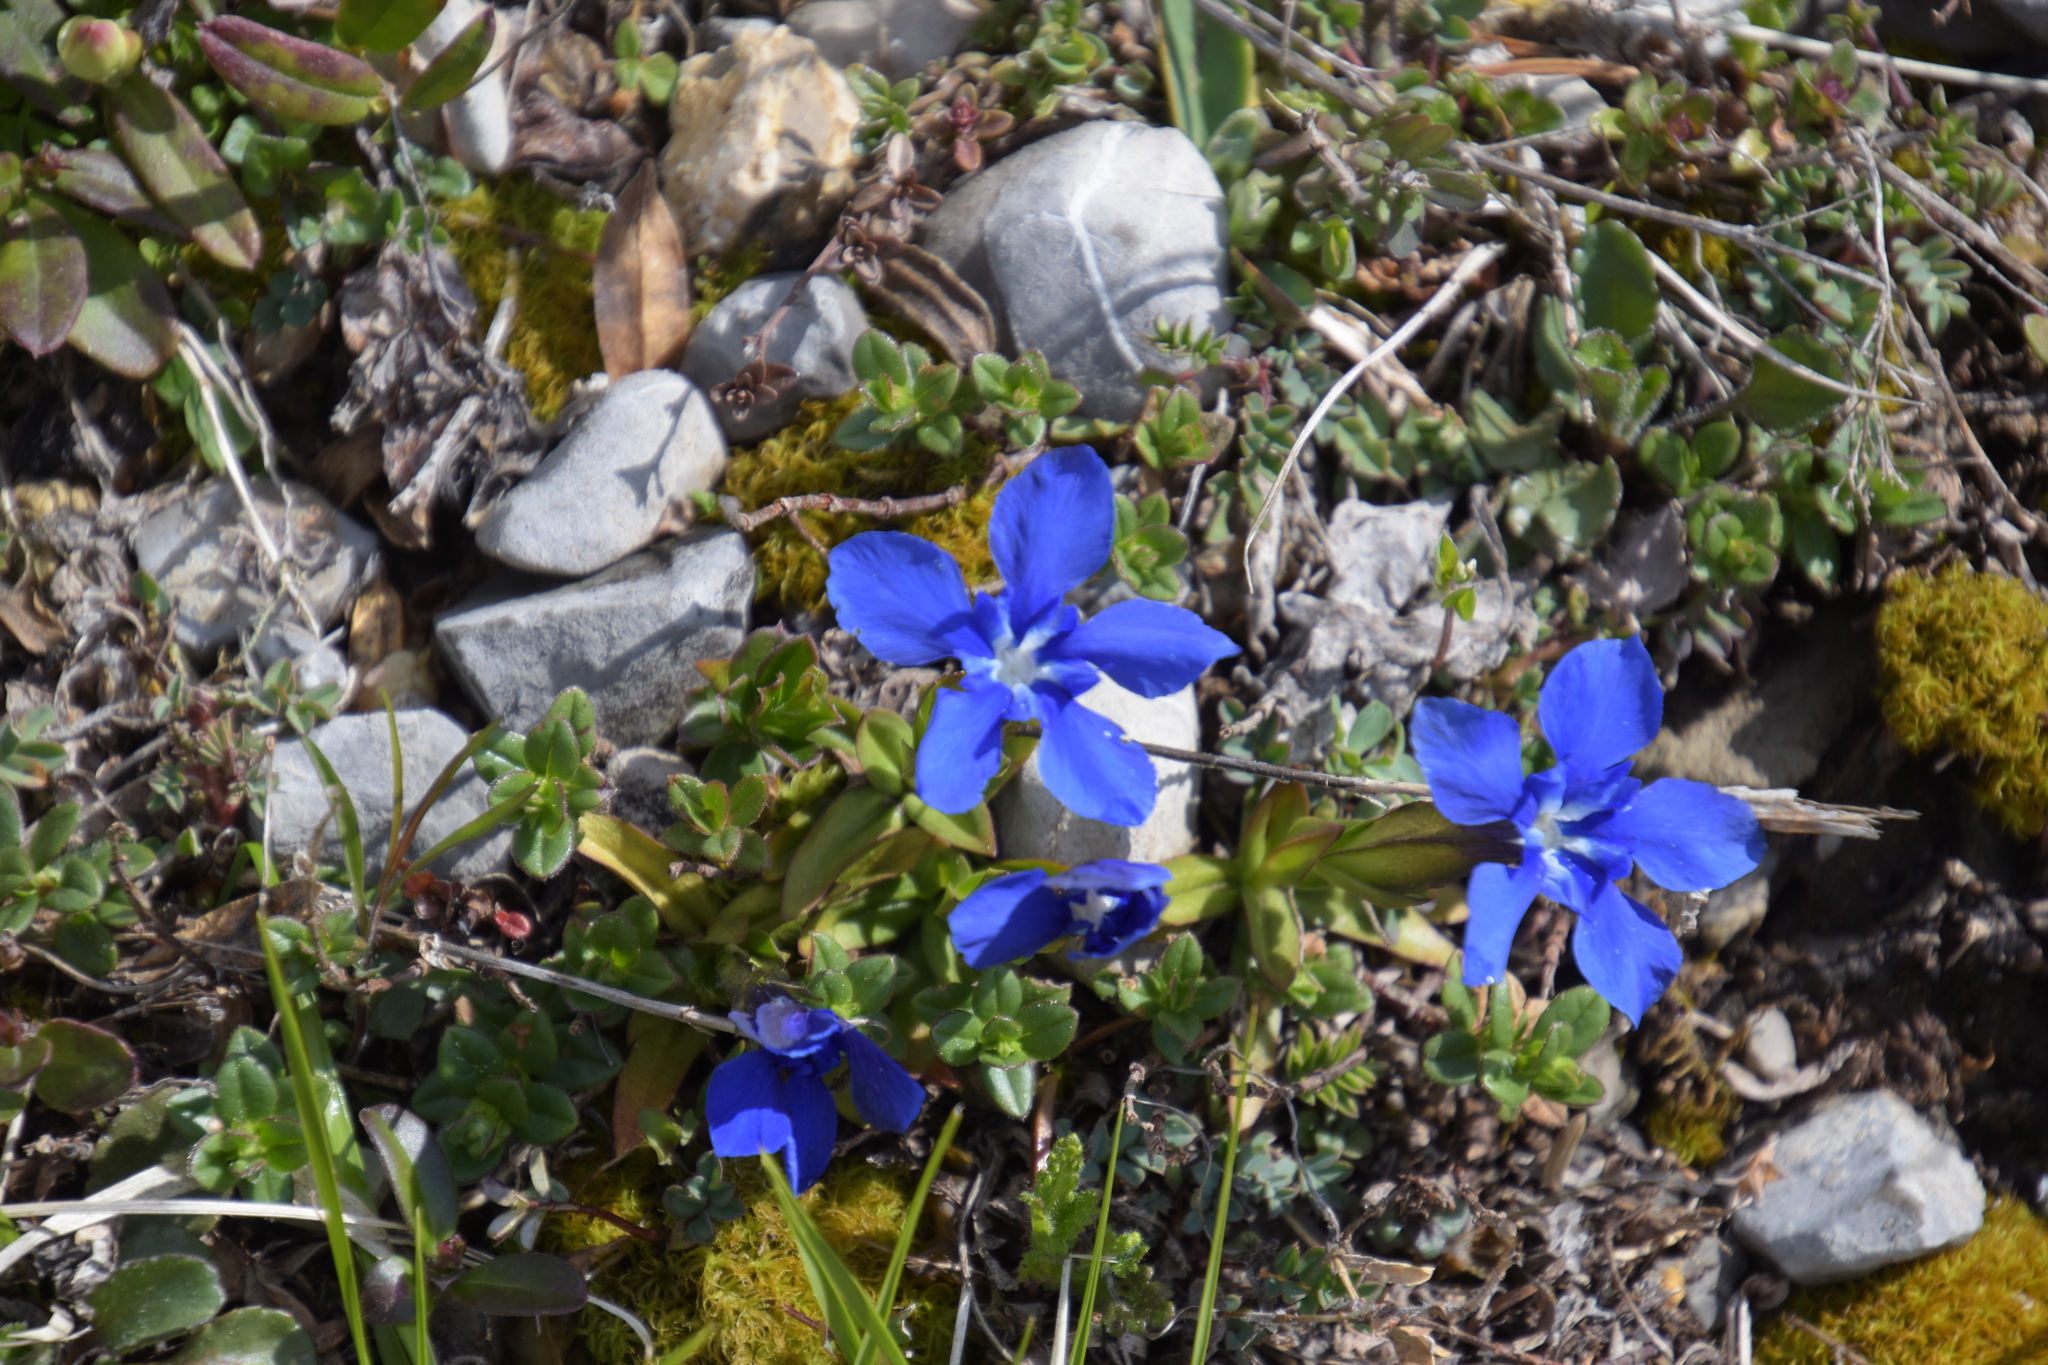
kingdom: Plantae
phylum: Tracheophyta
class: Magnoliopsida
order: Gentianales
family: Gentianaceae
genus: Gentiana
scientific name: Gentiana verna
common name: Spring gentian
